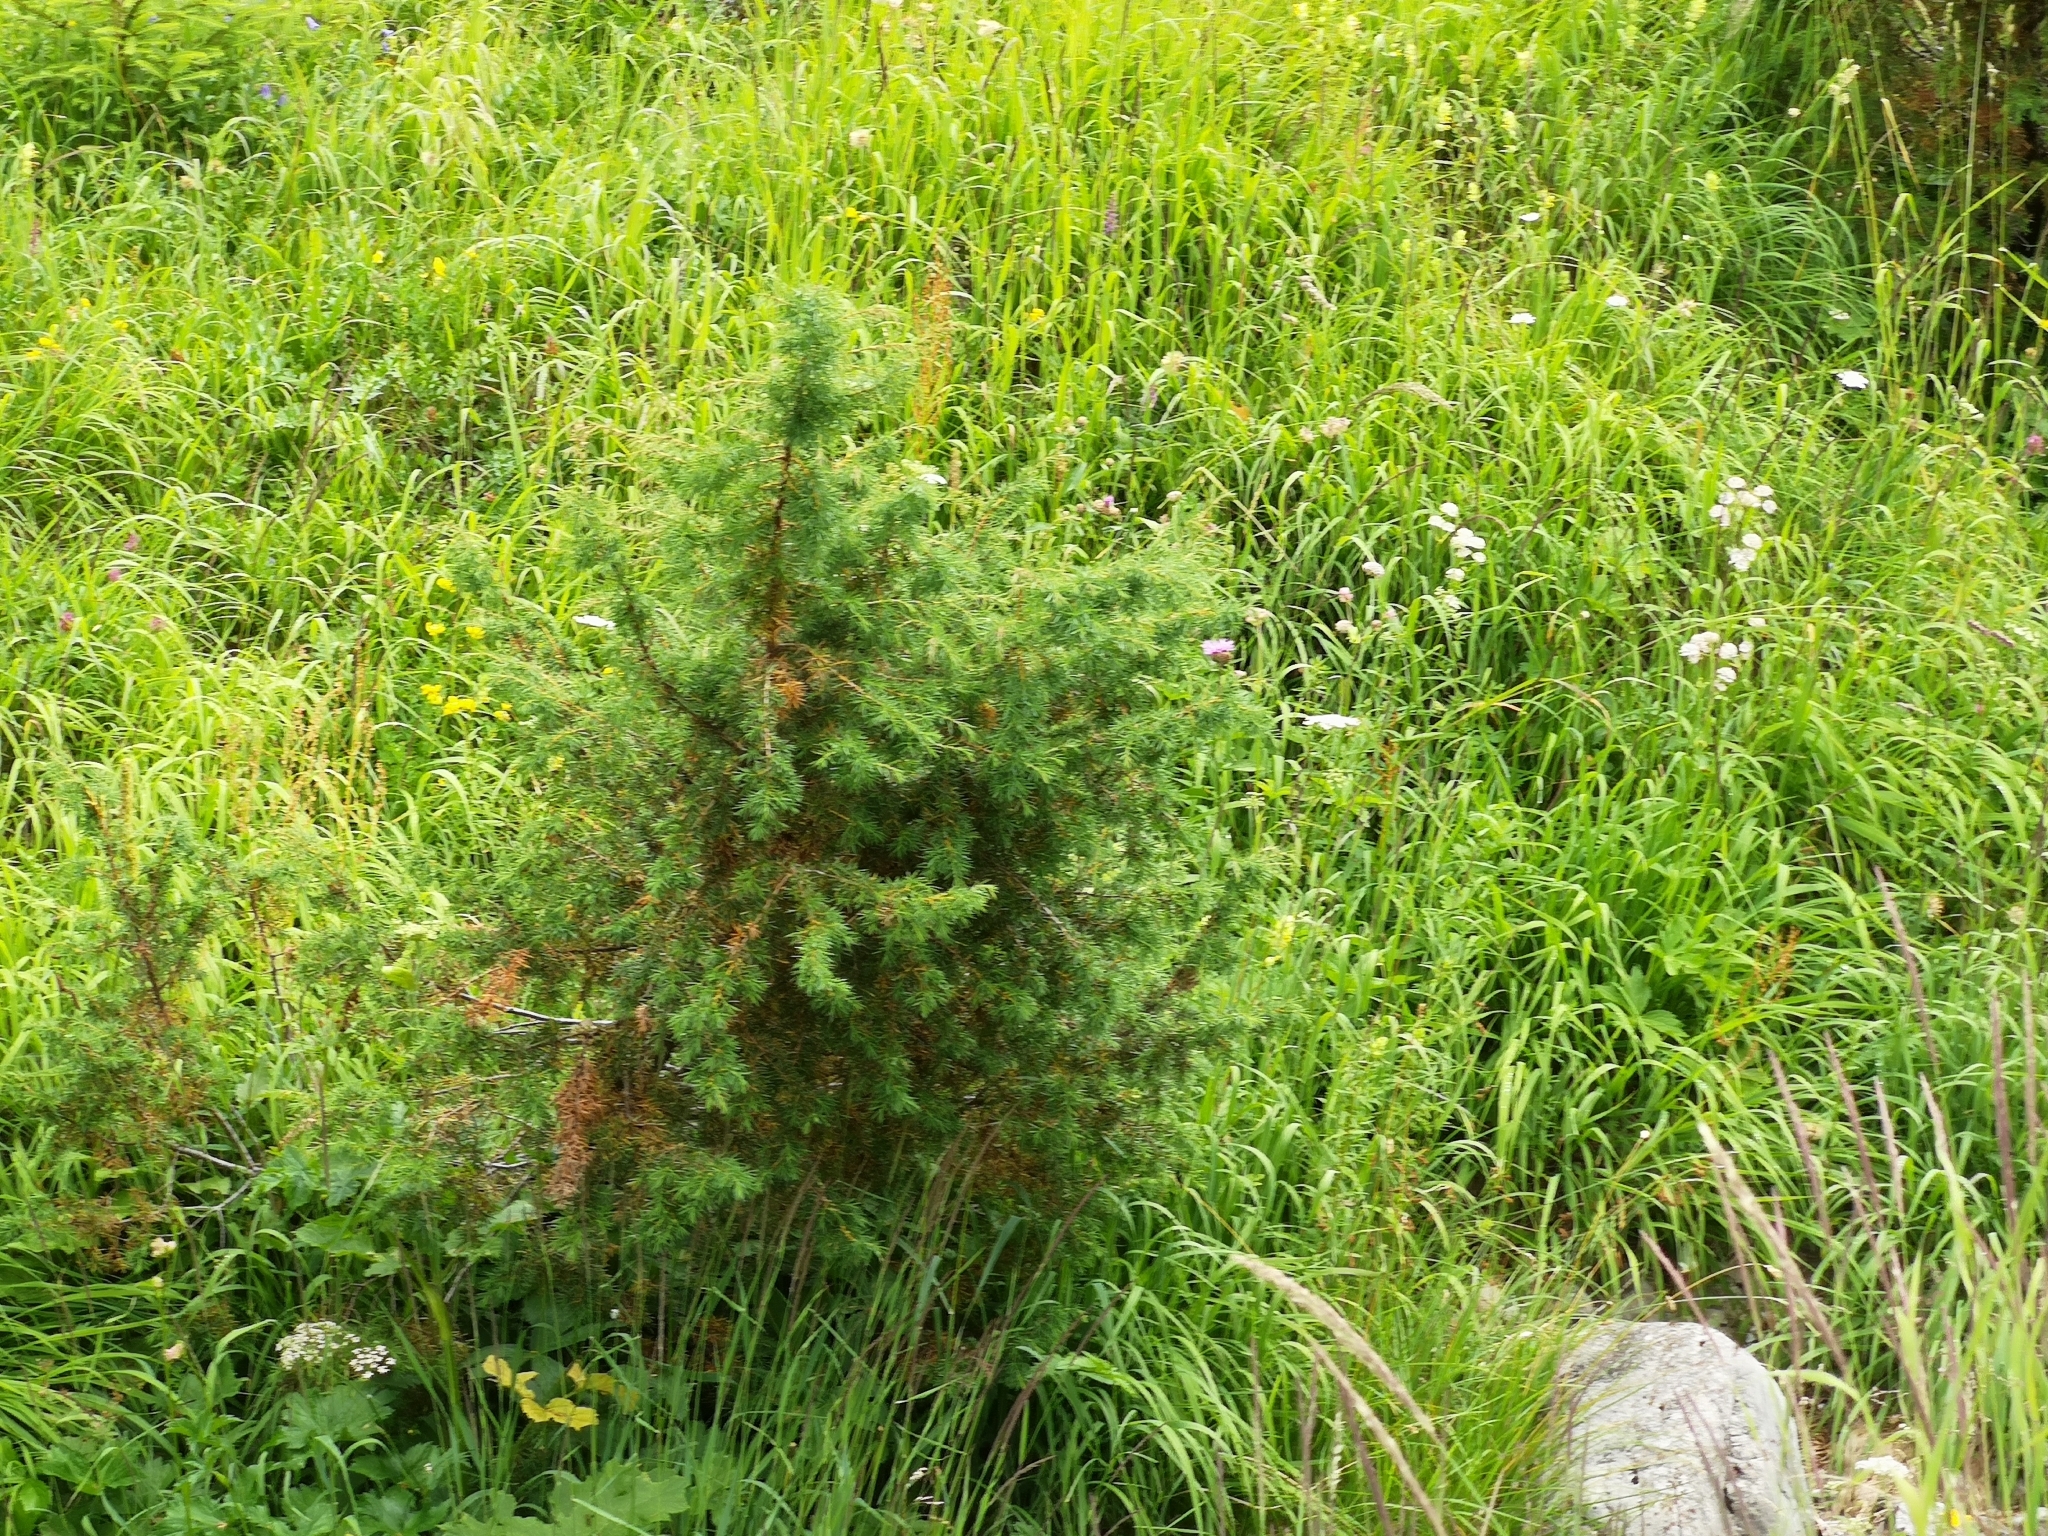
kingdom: Plantae
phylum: Tracheophyta
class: Pinopsida
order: Pinales
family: Cupressaceae
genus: Juniperus
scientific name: Juniperus communis
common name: Common juniper
